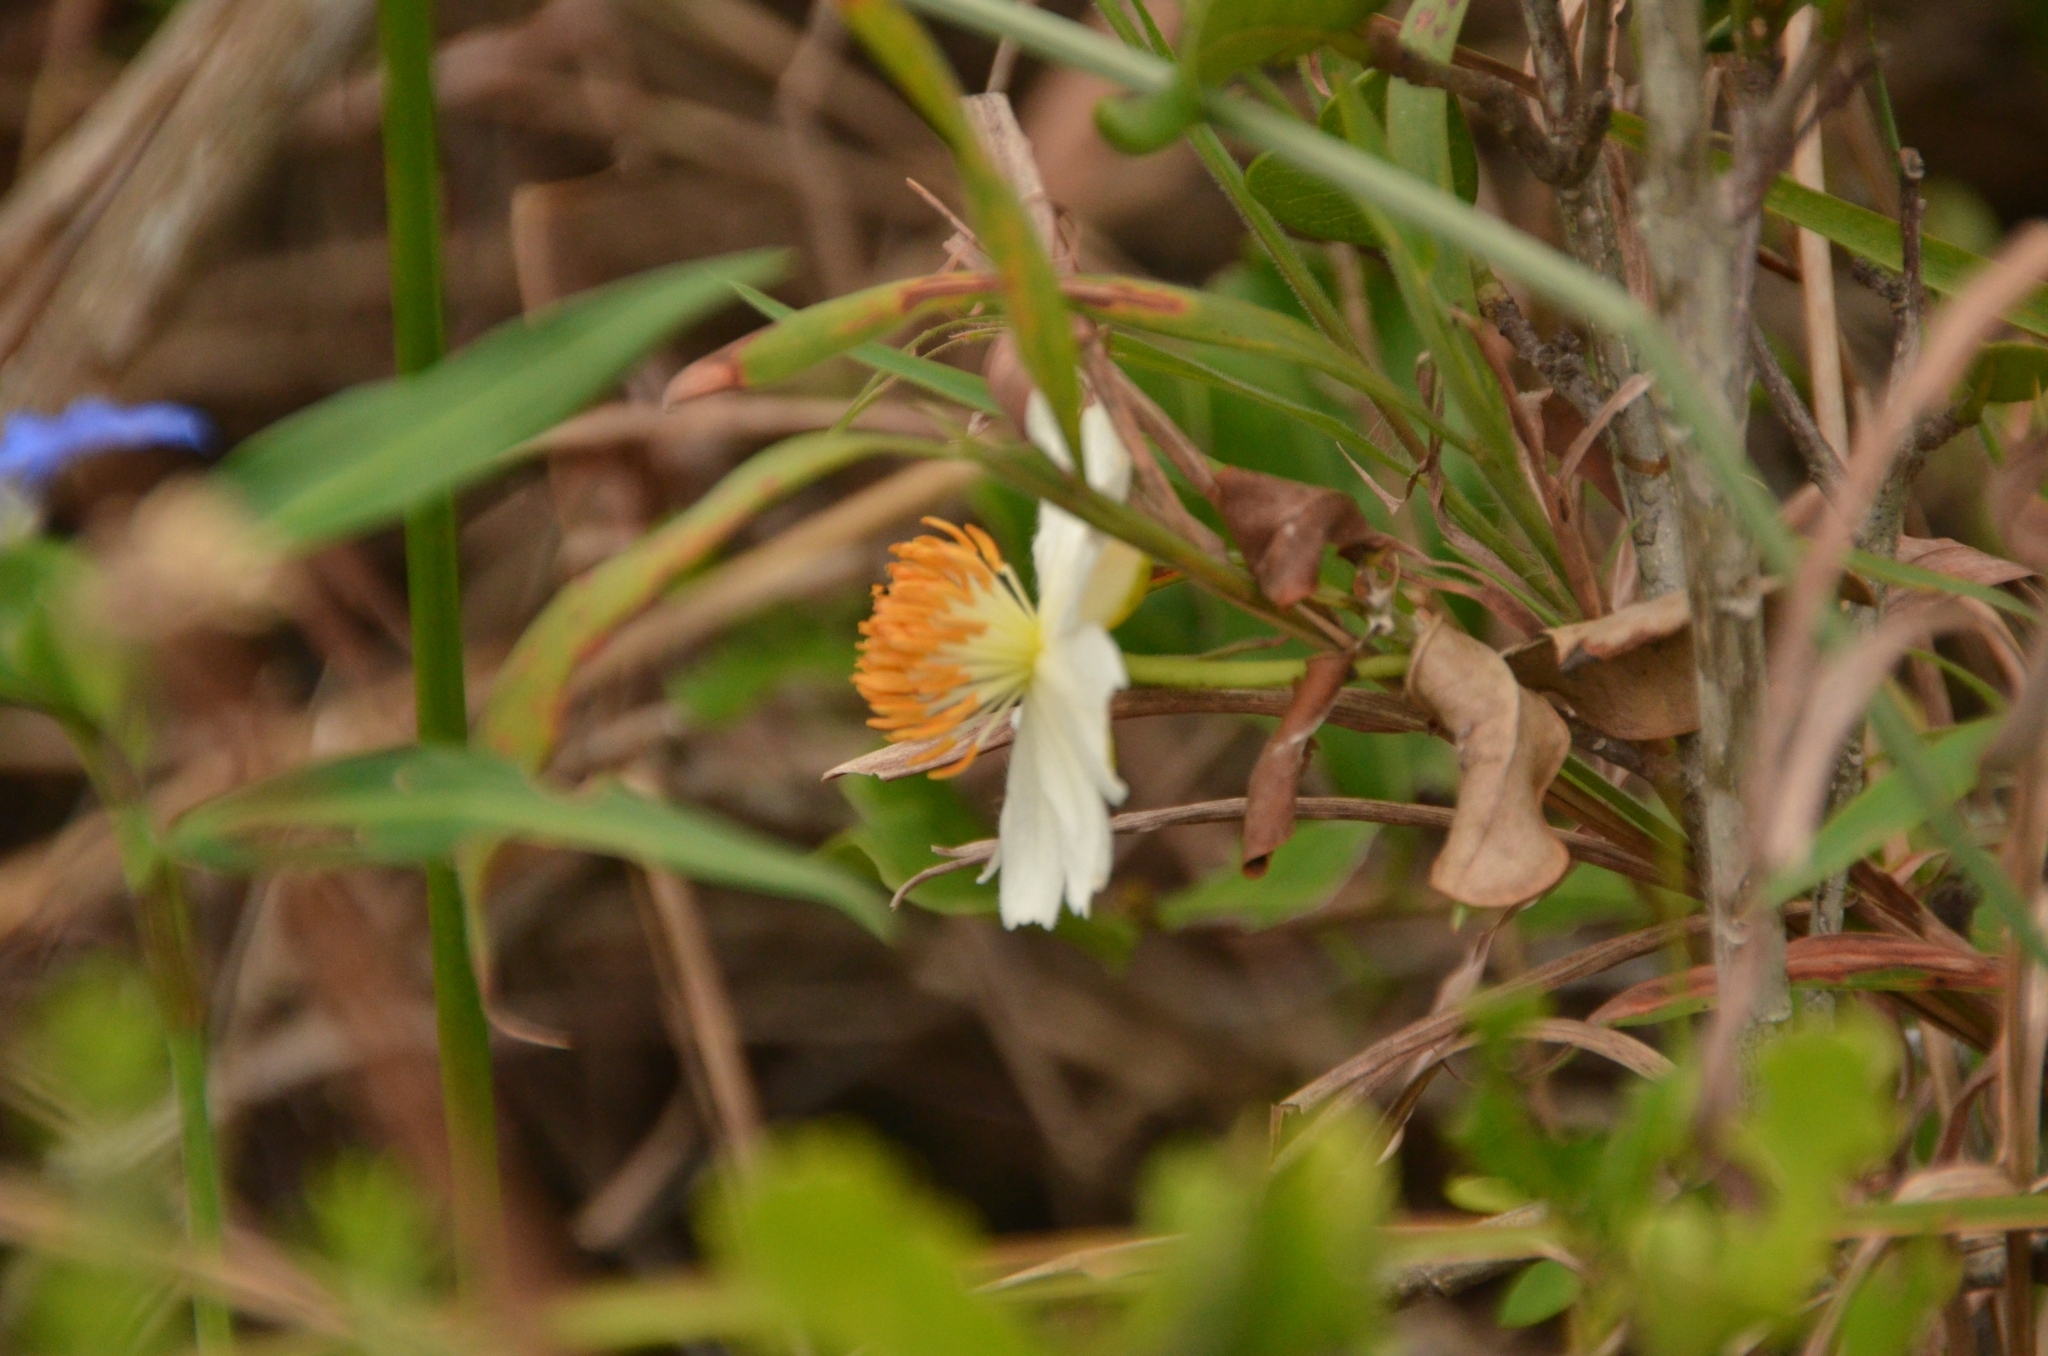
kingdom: Plantae
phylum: Tracheophyta
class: Magnoliopsida
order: Malpighiales
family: Achariaceae
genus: Xylotheca
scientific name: Xylotheca kraussiana
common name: African dog rose
